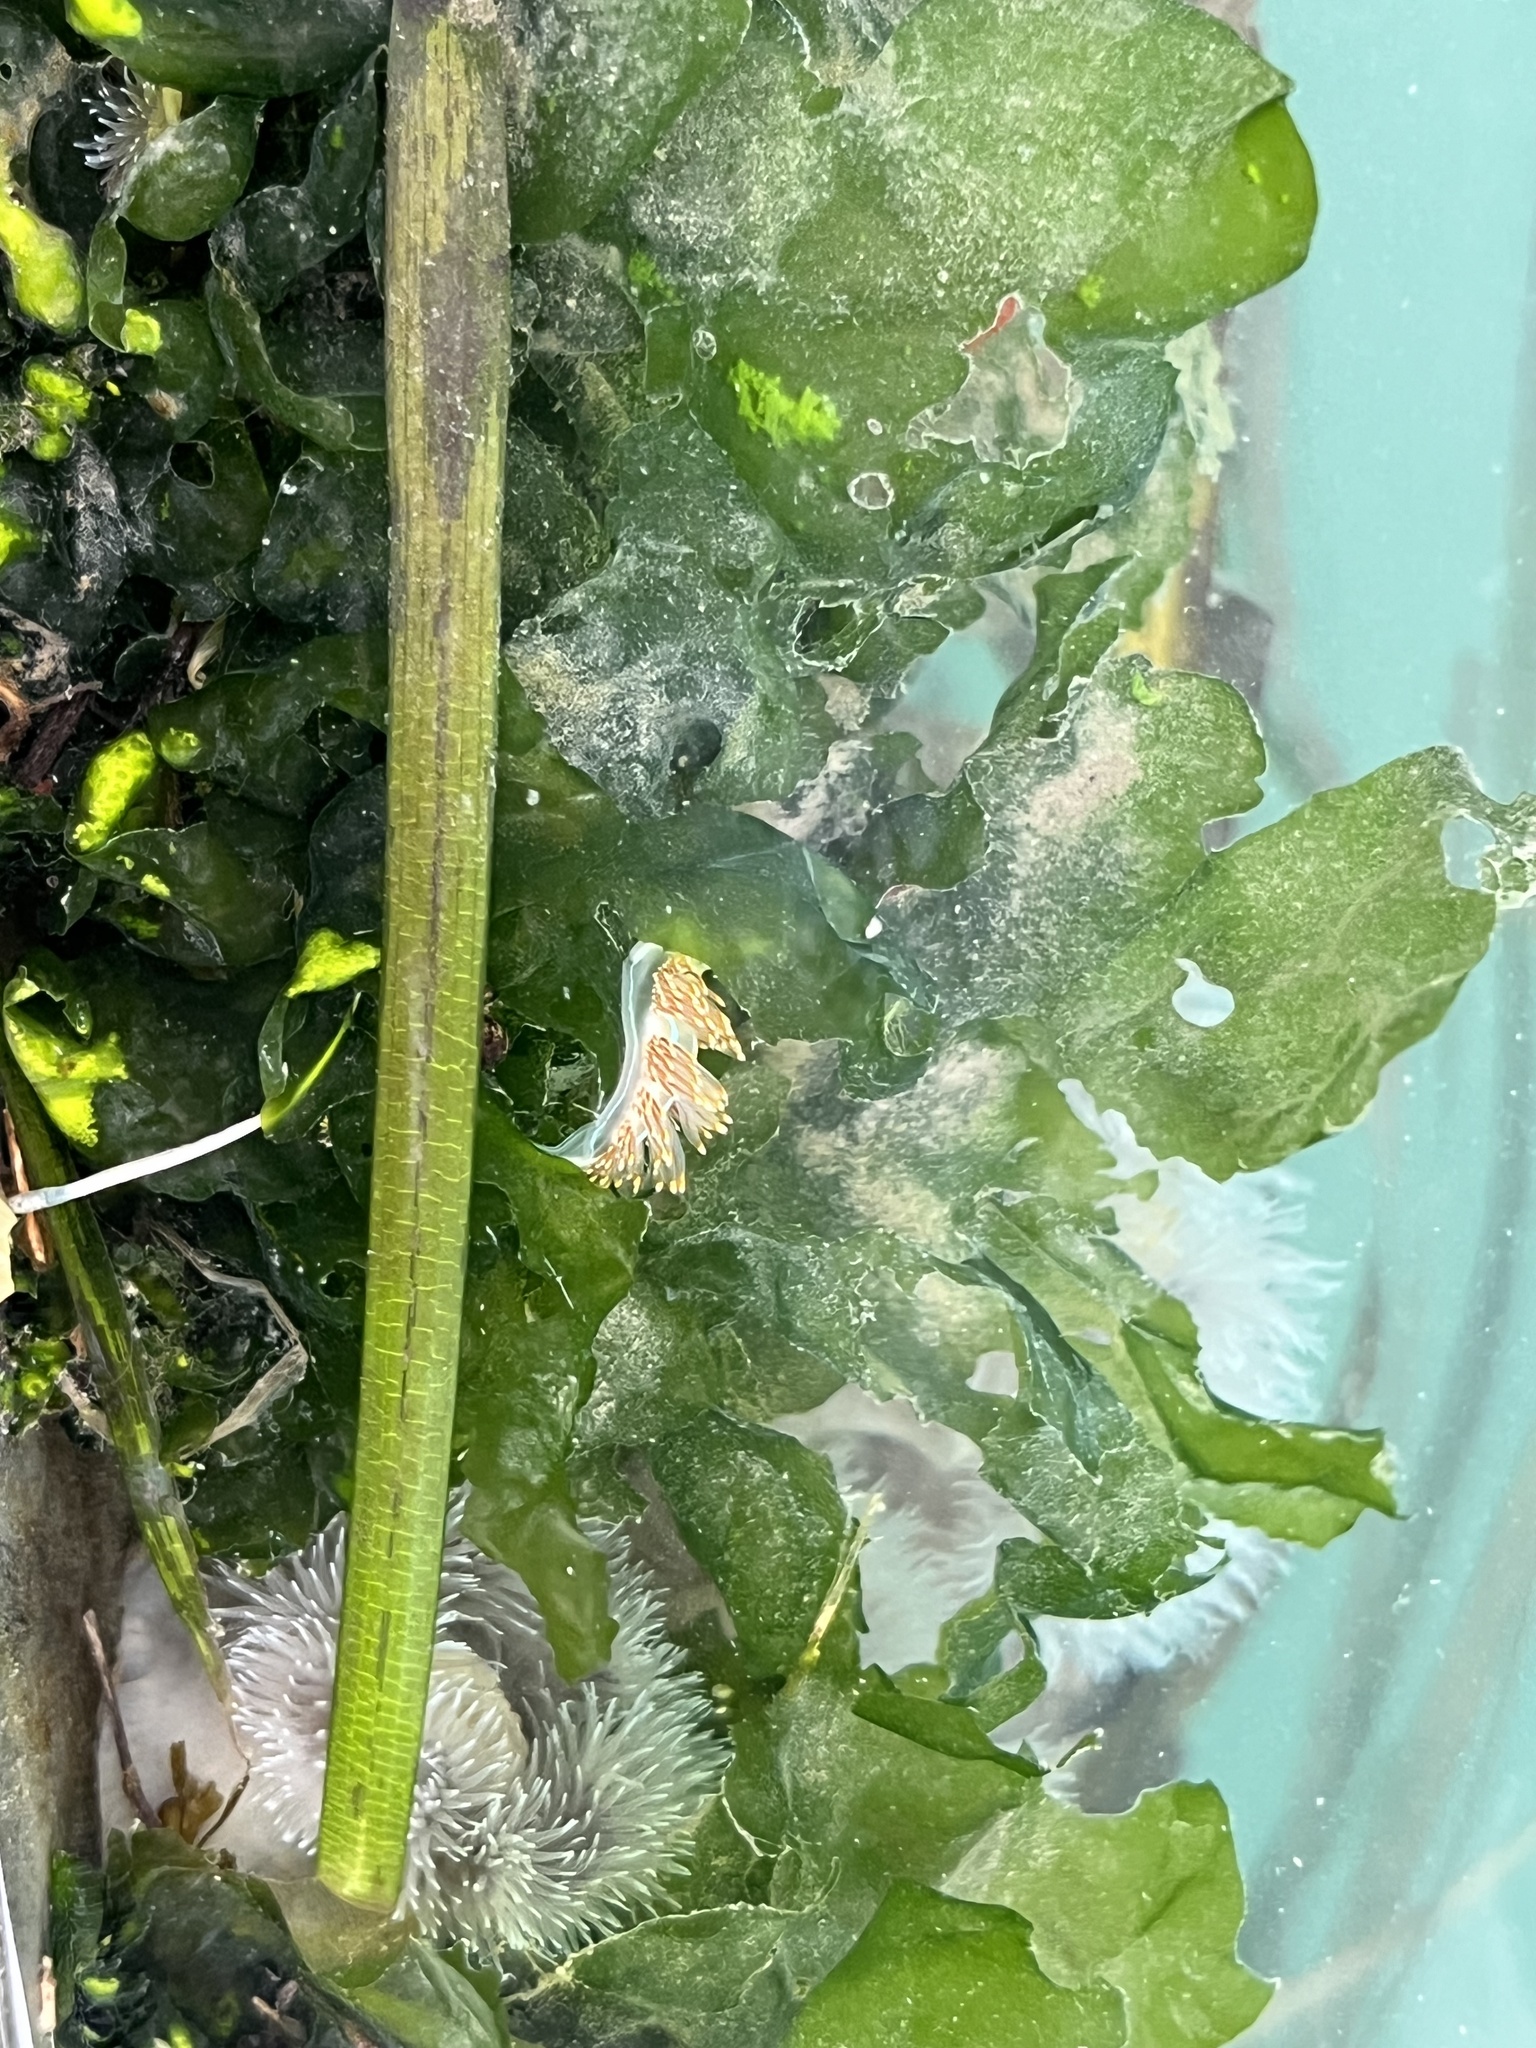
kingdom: Animalia
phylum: Mollusca
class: Gastropoda
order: Nudibranchia
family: Myrrhinidae
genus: Hermissenda
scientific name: Hermissenda opalescens
